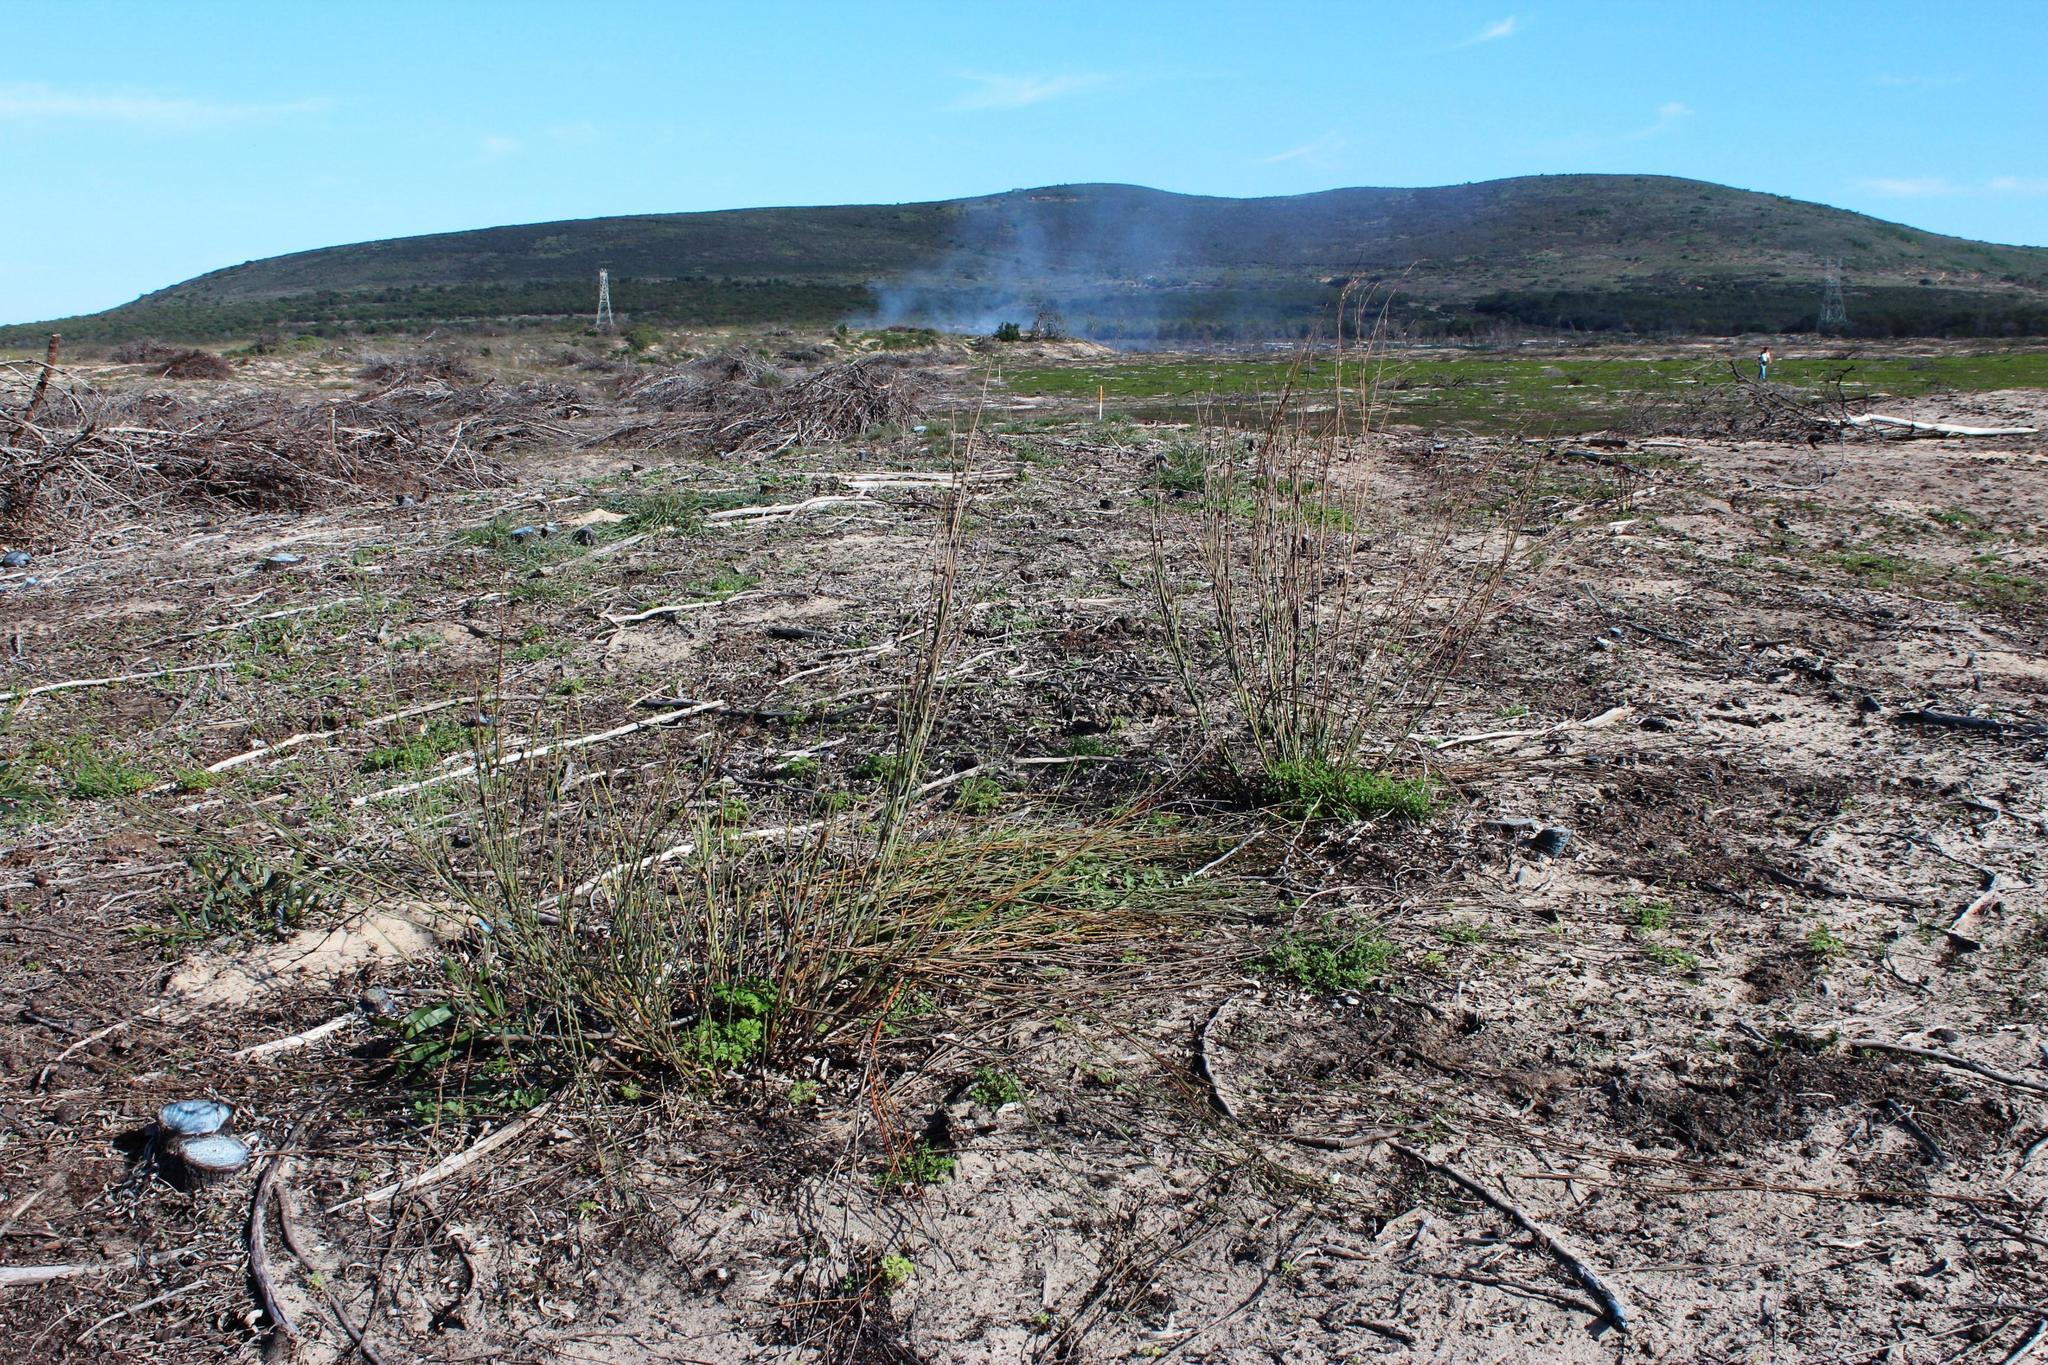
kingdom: Plantae
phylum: Tracheophyta
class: Liliopsida
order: Poales
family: Restionaceae
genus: Willdenowia
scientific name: Willdenowia incurvata
